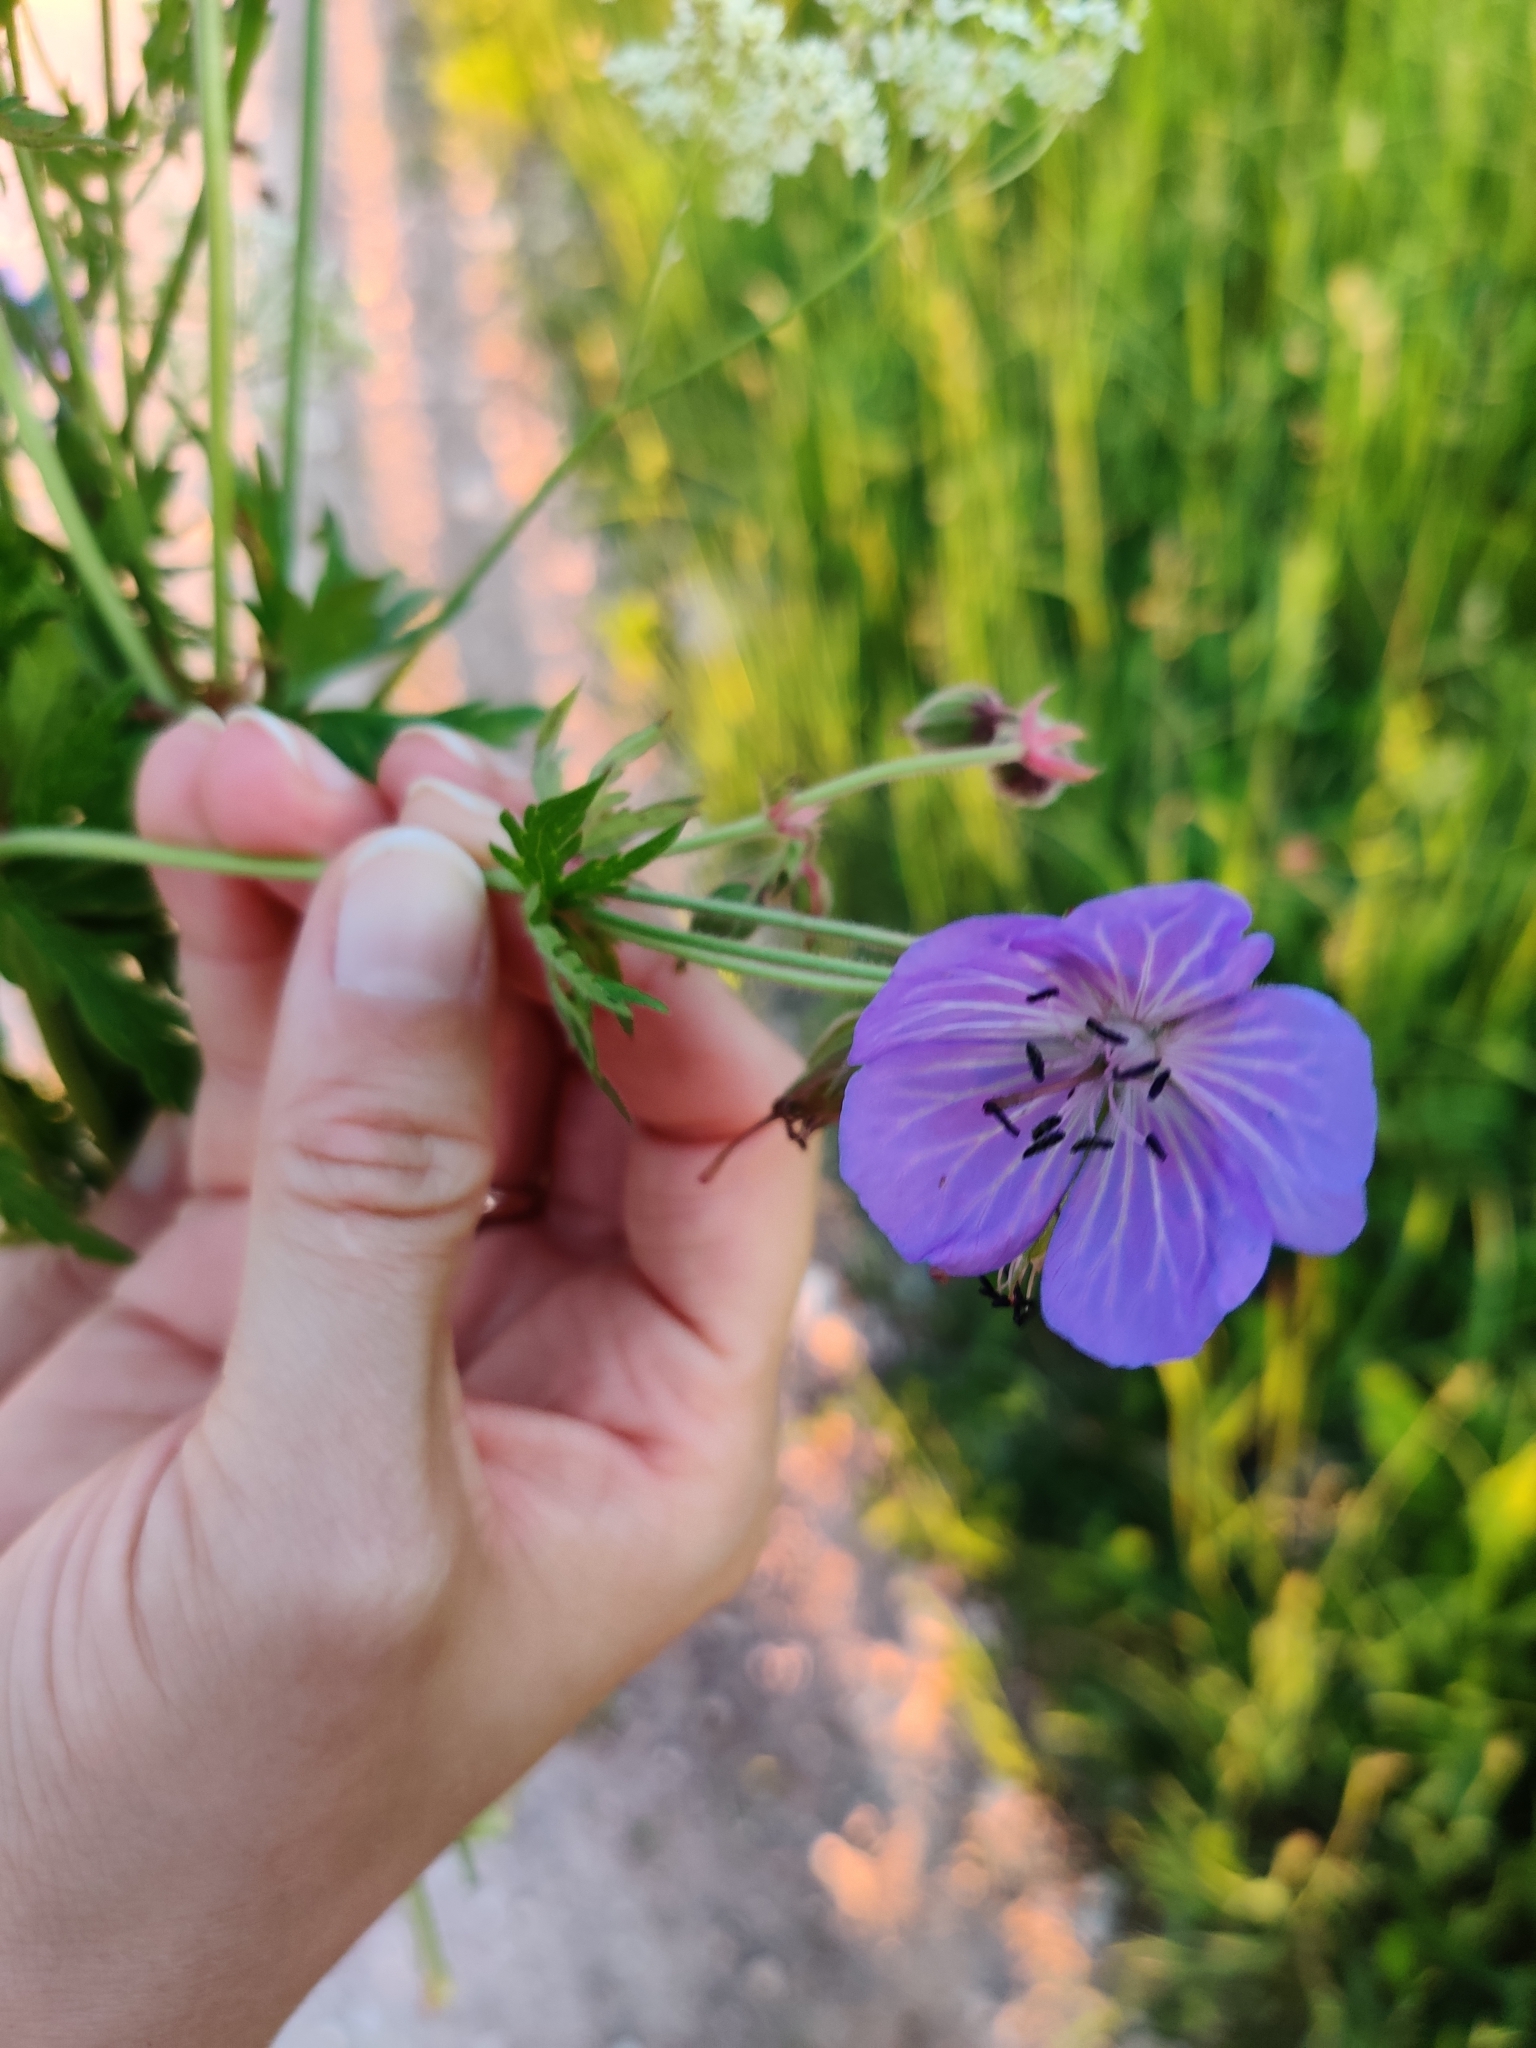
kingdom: Plantae
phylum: Tracheophyta
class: Magnoliopsida
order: Geraniales
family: Geraniaceae
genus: Geranium
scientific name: Geranium pratense
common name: Meadow crane's-bill
